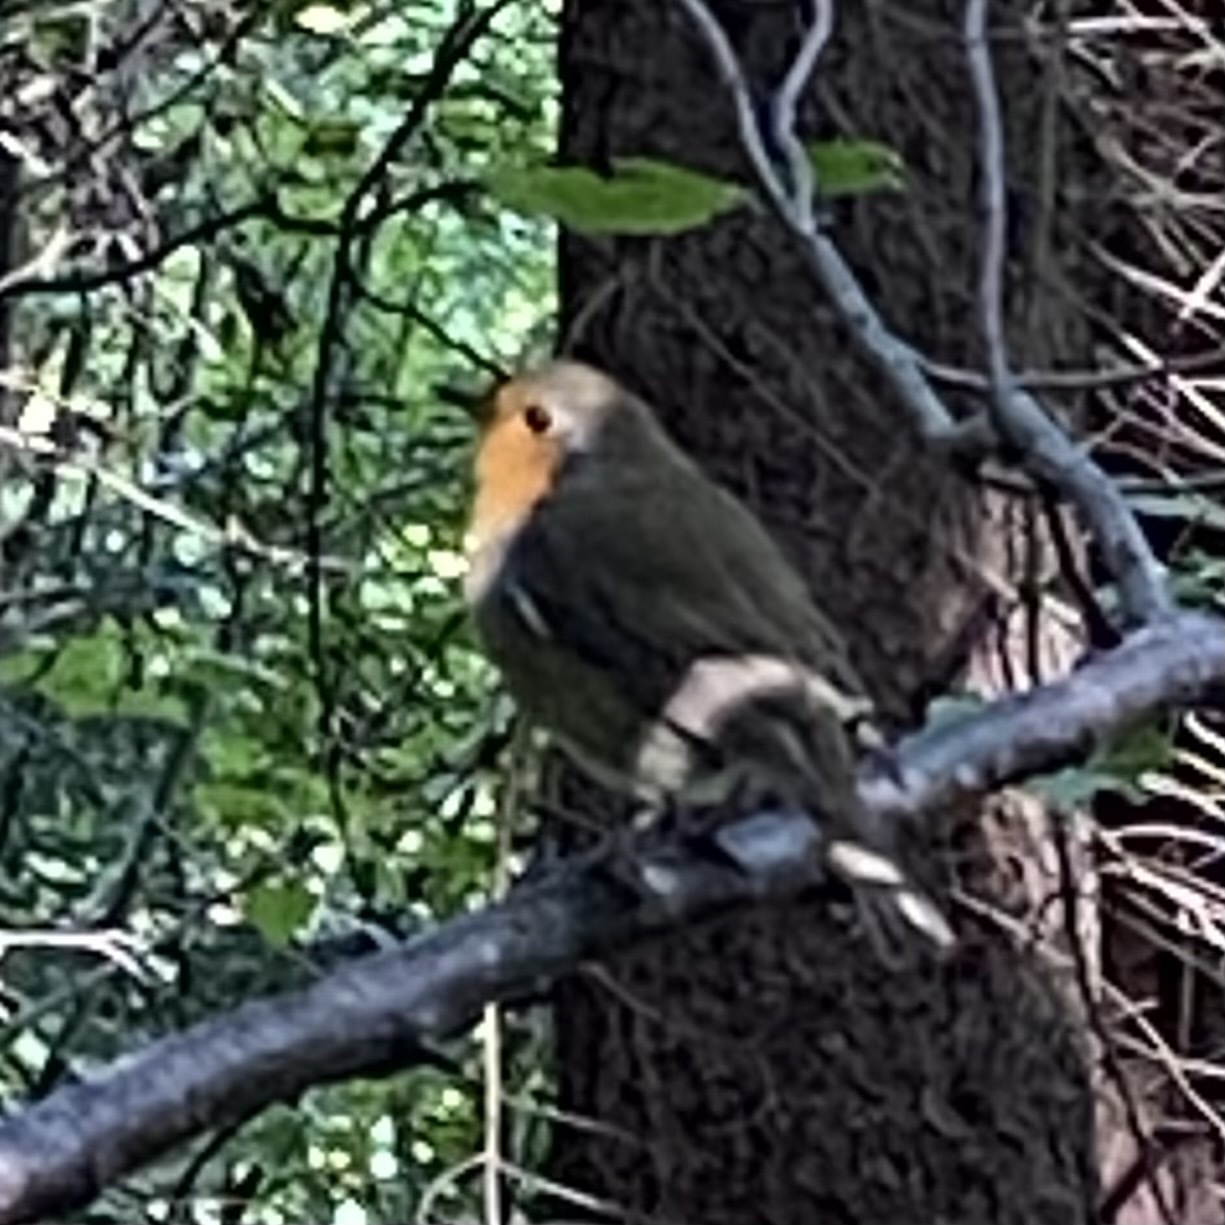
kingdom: Animalia
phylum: Chordata
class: Aves
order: Passeriformes
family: Muscicapidae
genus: Erithacus
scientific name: Erithacus rubecula
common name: European robin
